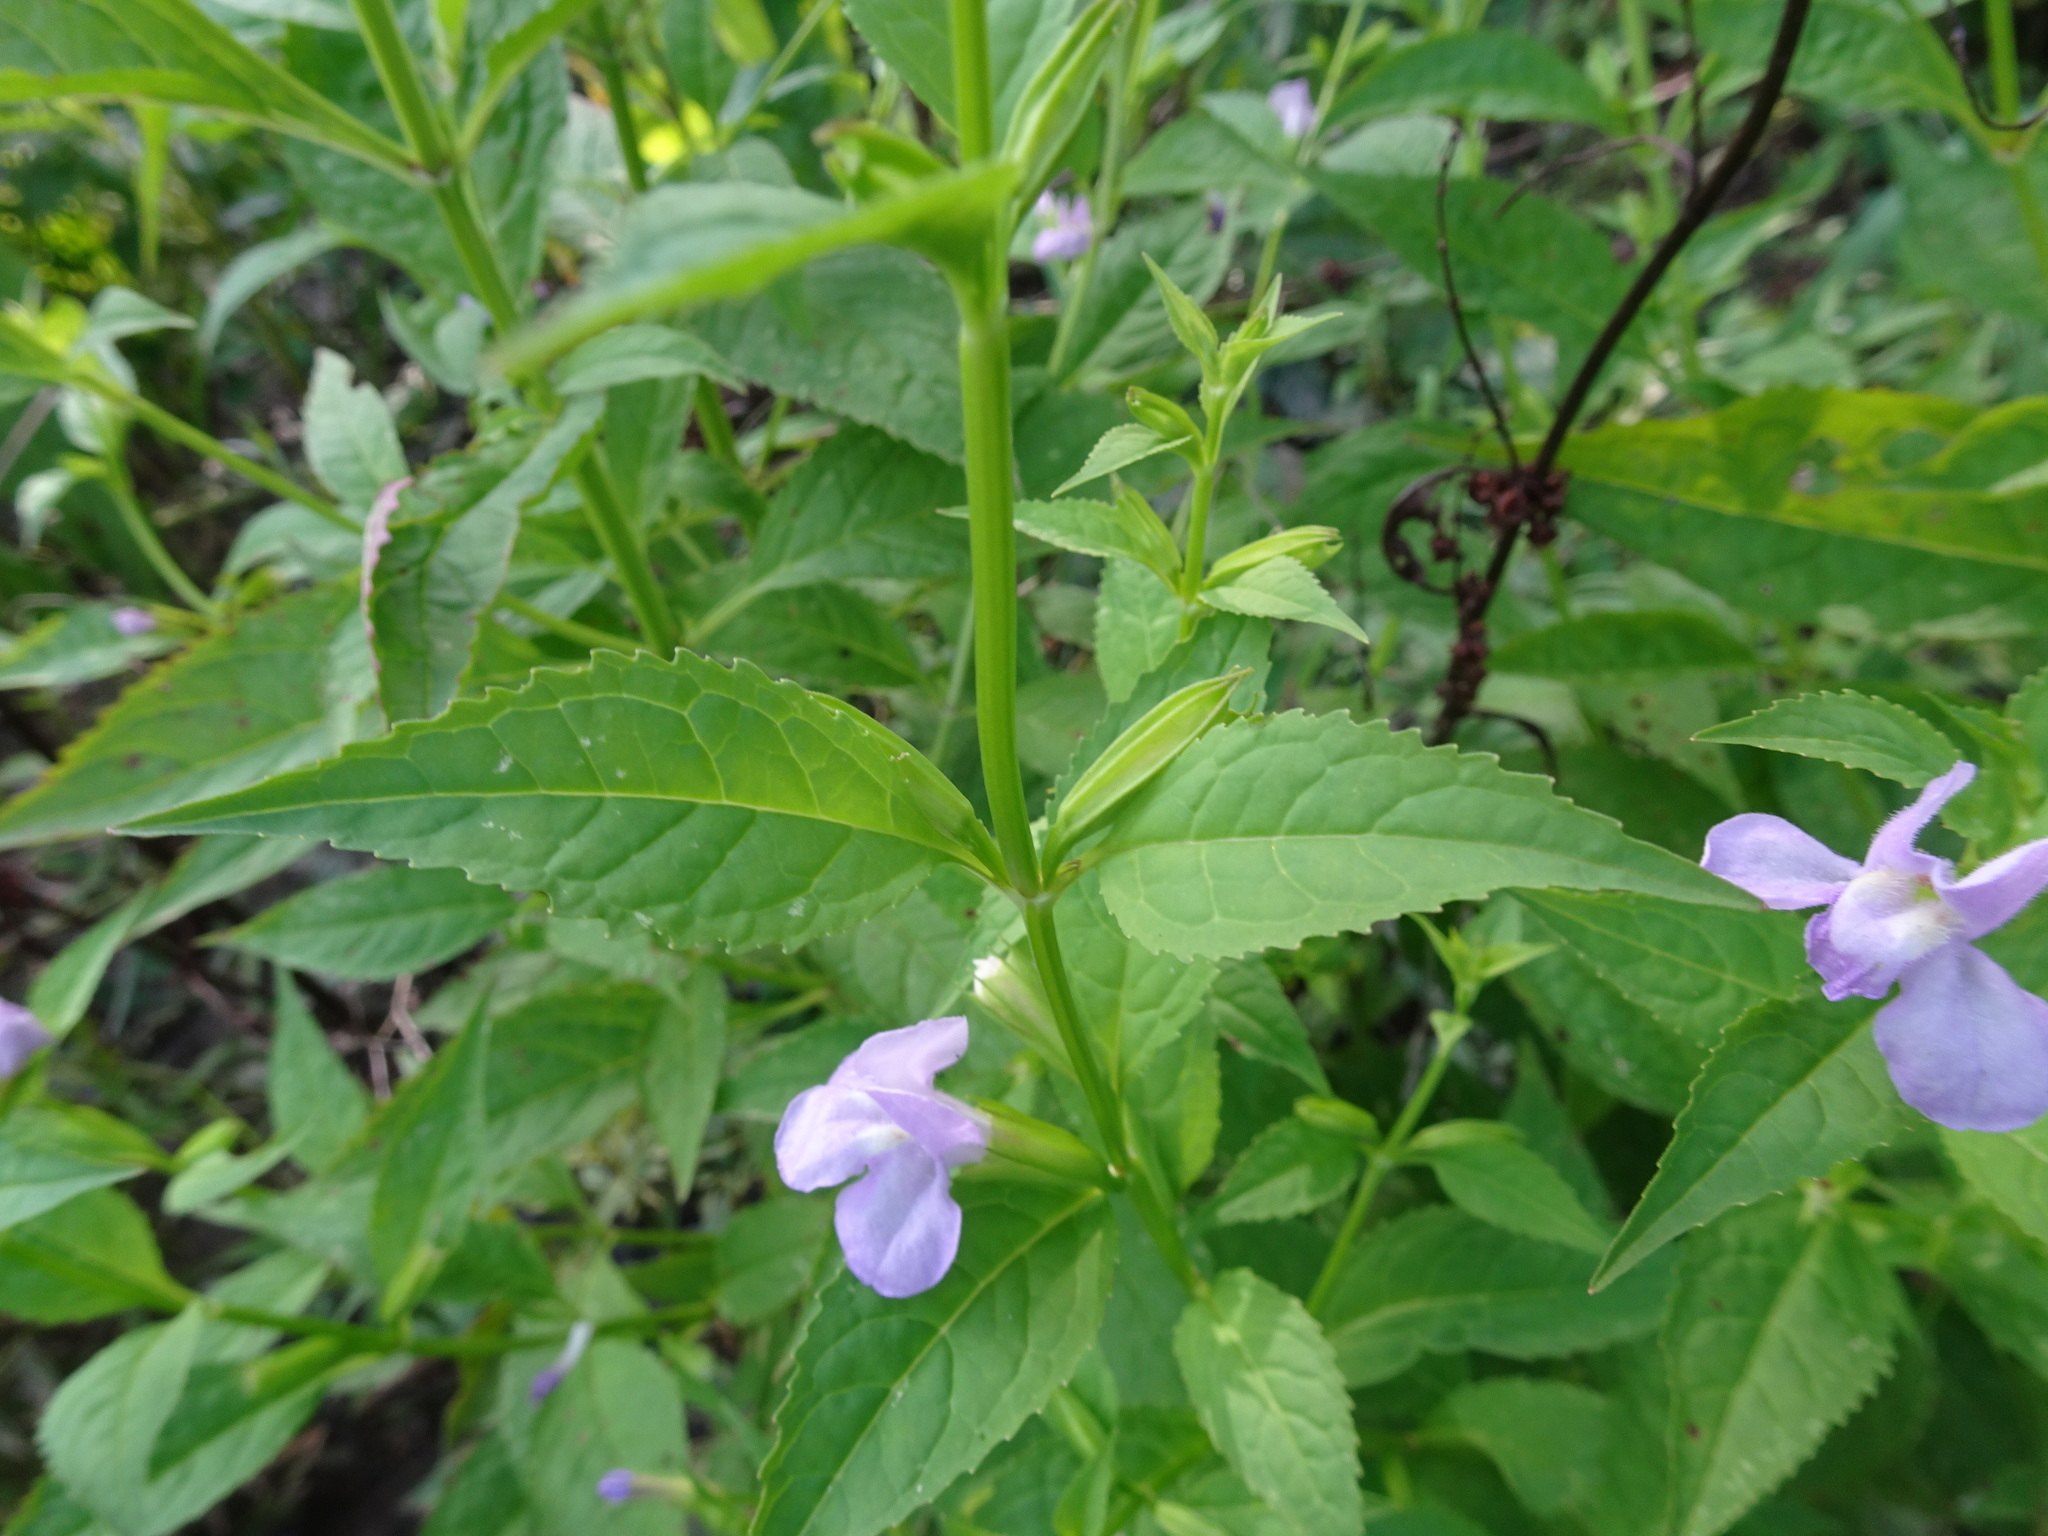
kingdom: Plantae
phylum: Tracheophyta
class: Magnoliopsida
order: Lamiales
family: Phrymaceae
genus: Mimulus
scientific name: Mimulus alatus
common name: Sharp-wing monkey-flower
